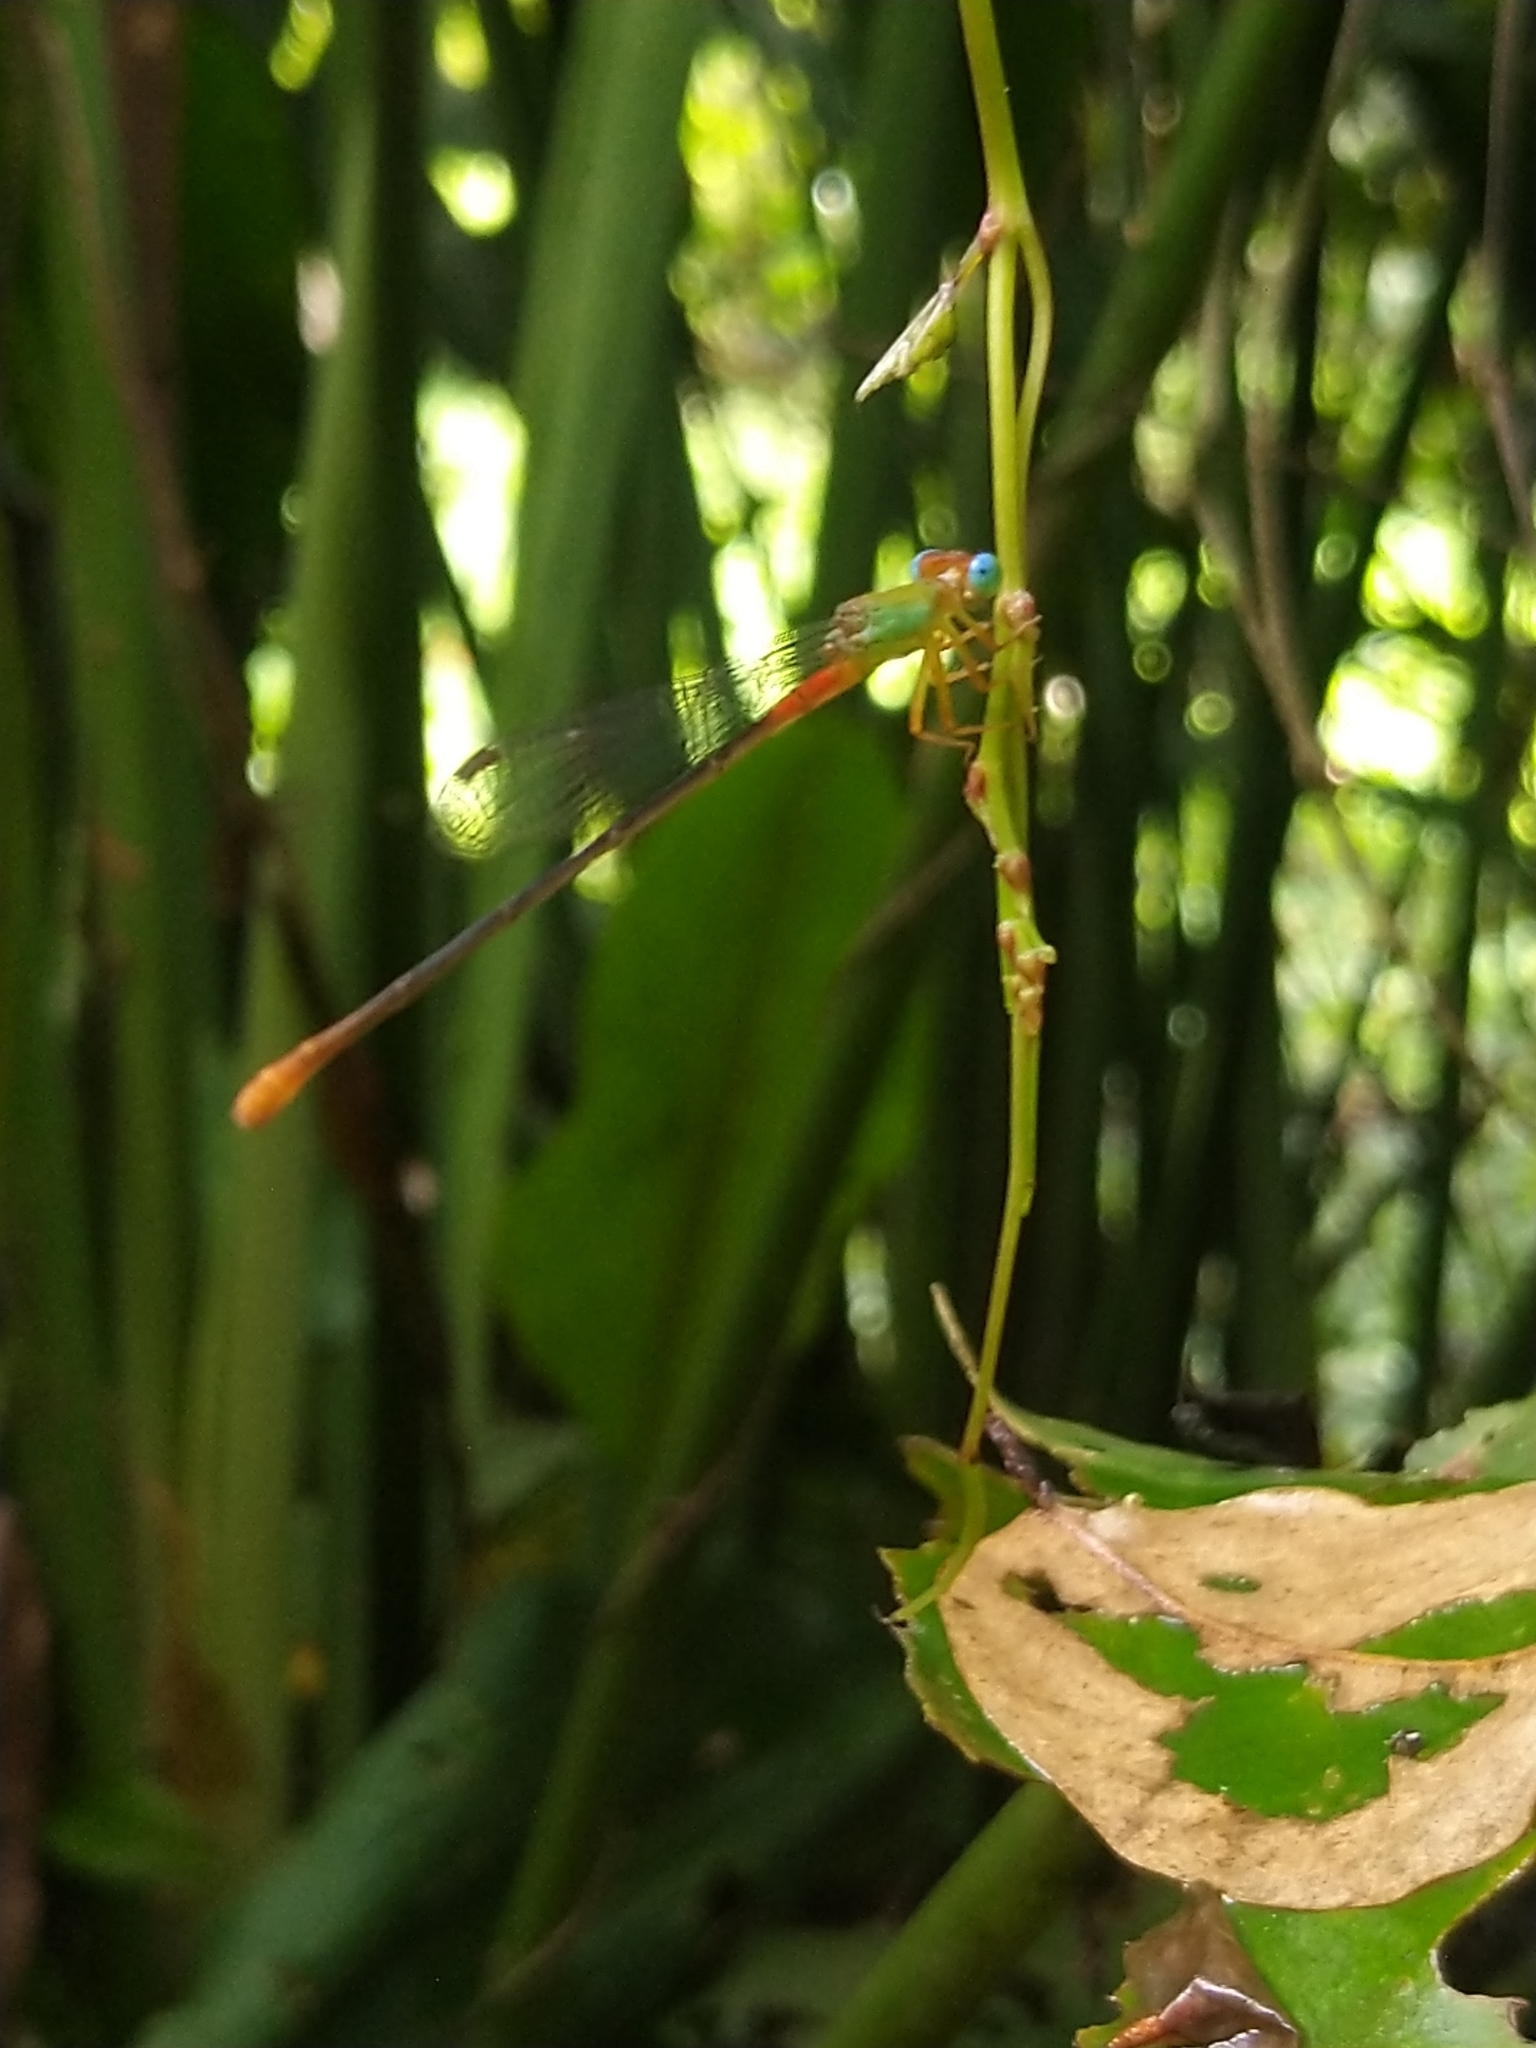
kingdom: Animalia
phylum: Arthropoda
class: Insecta
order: Odonata
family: Coenagrionidae
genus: Ceriagrion
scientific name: Ceriagrion cerinorubellum
